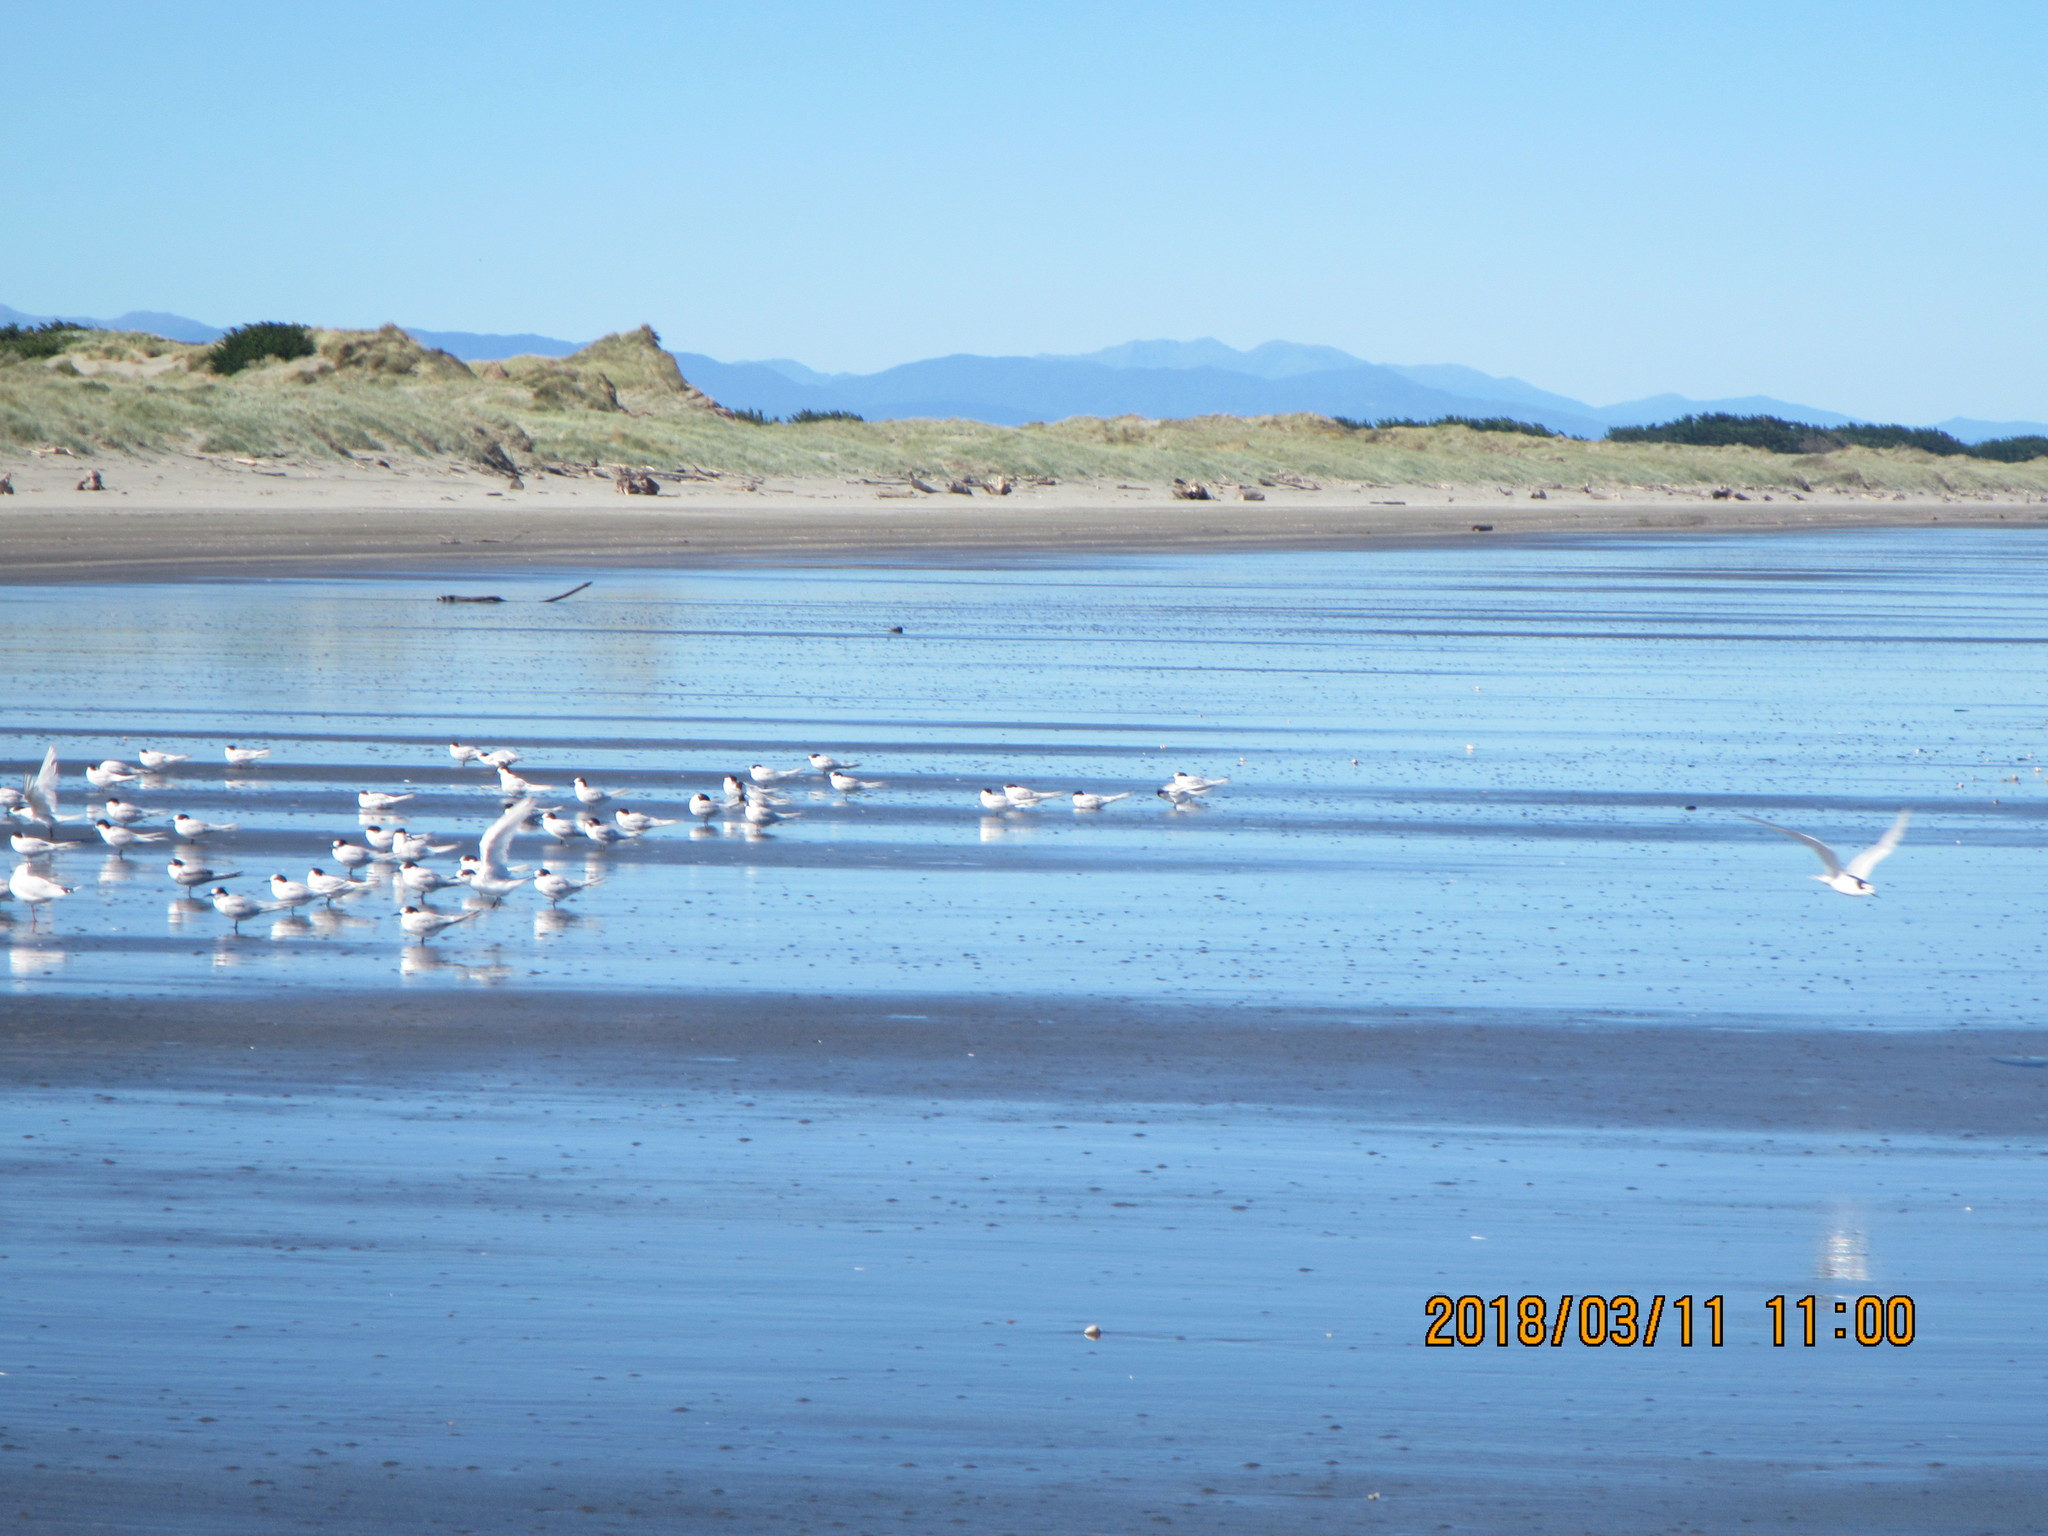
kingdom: Animalia
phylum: Chordata
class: Aves
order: Charadriiformes
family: Laridae
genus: Sterna
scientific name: Sterna striata
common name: White-fronted tern
